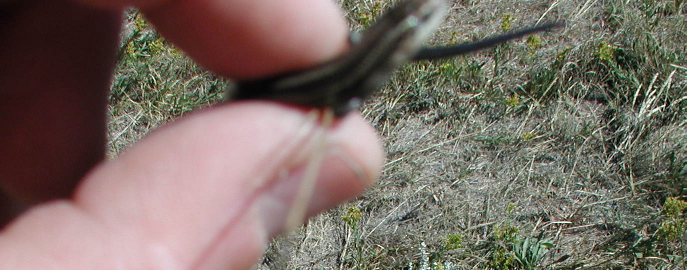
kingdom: Animalia
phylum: Chordata
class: Squamata
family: Scincidae
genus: Plestiodon
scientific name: Plestiodon multivirgatus
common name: Many-lined skink
